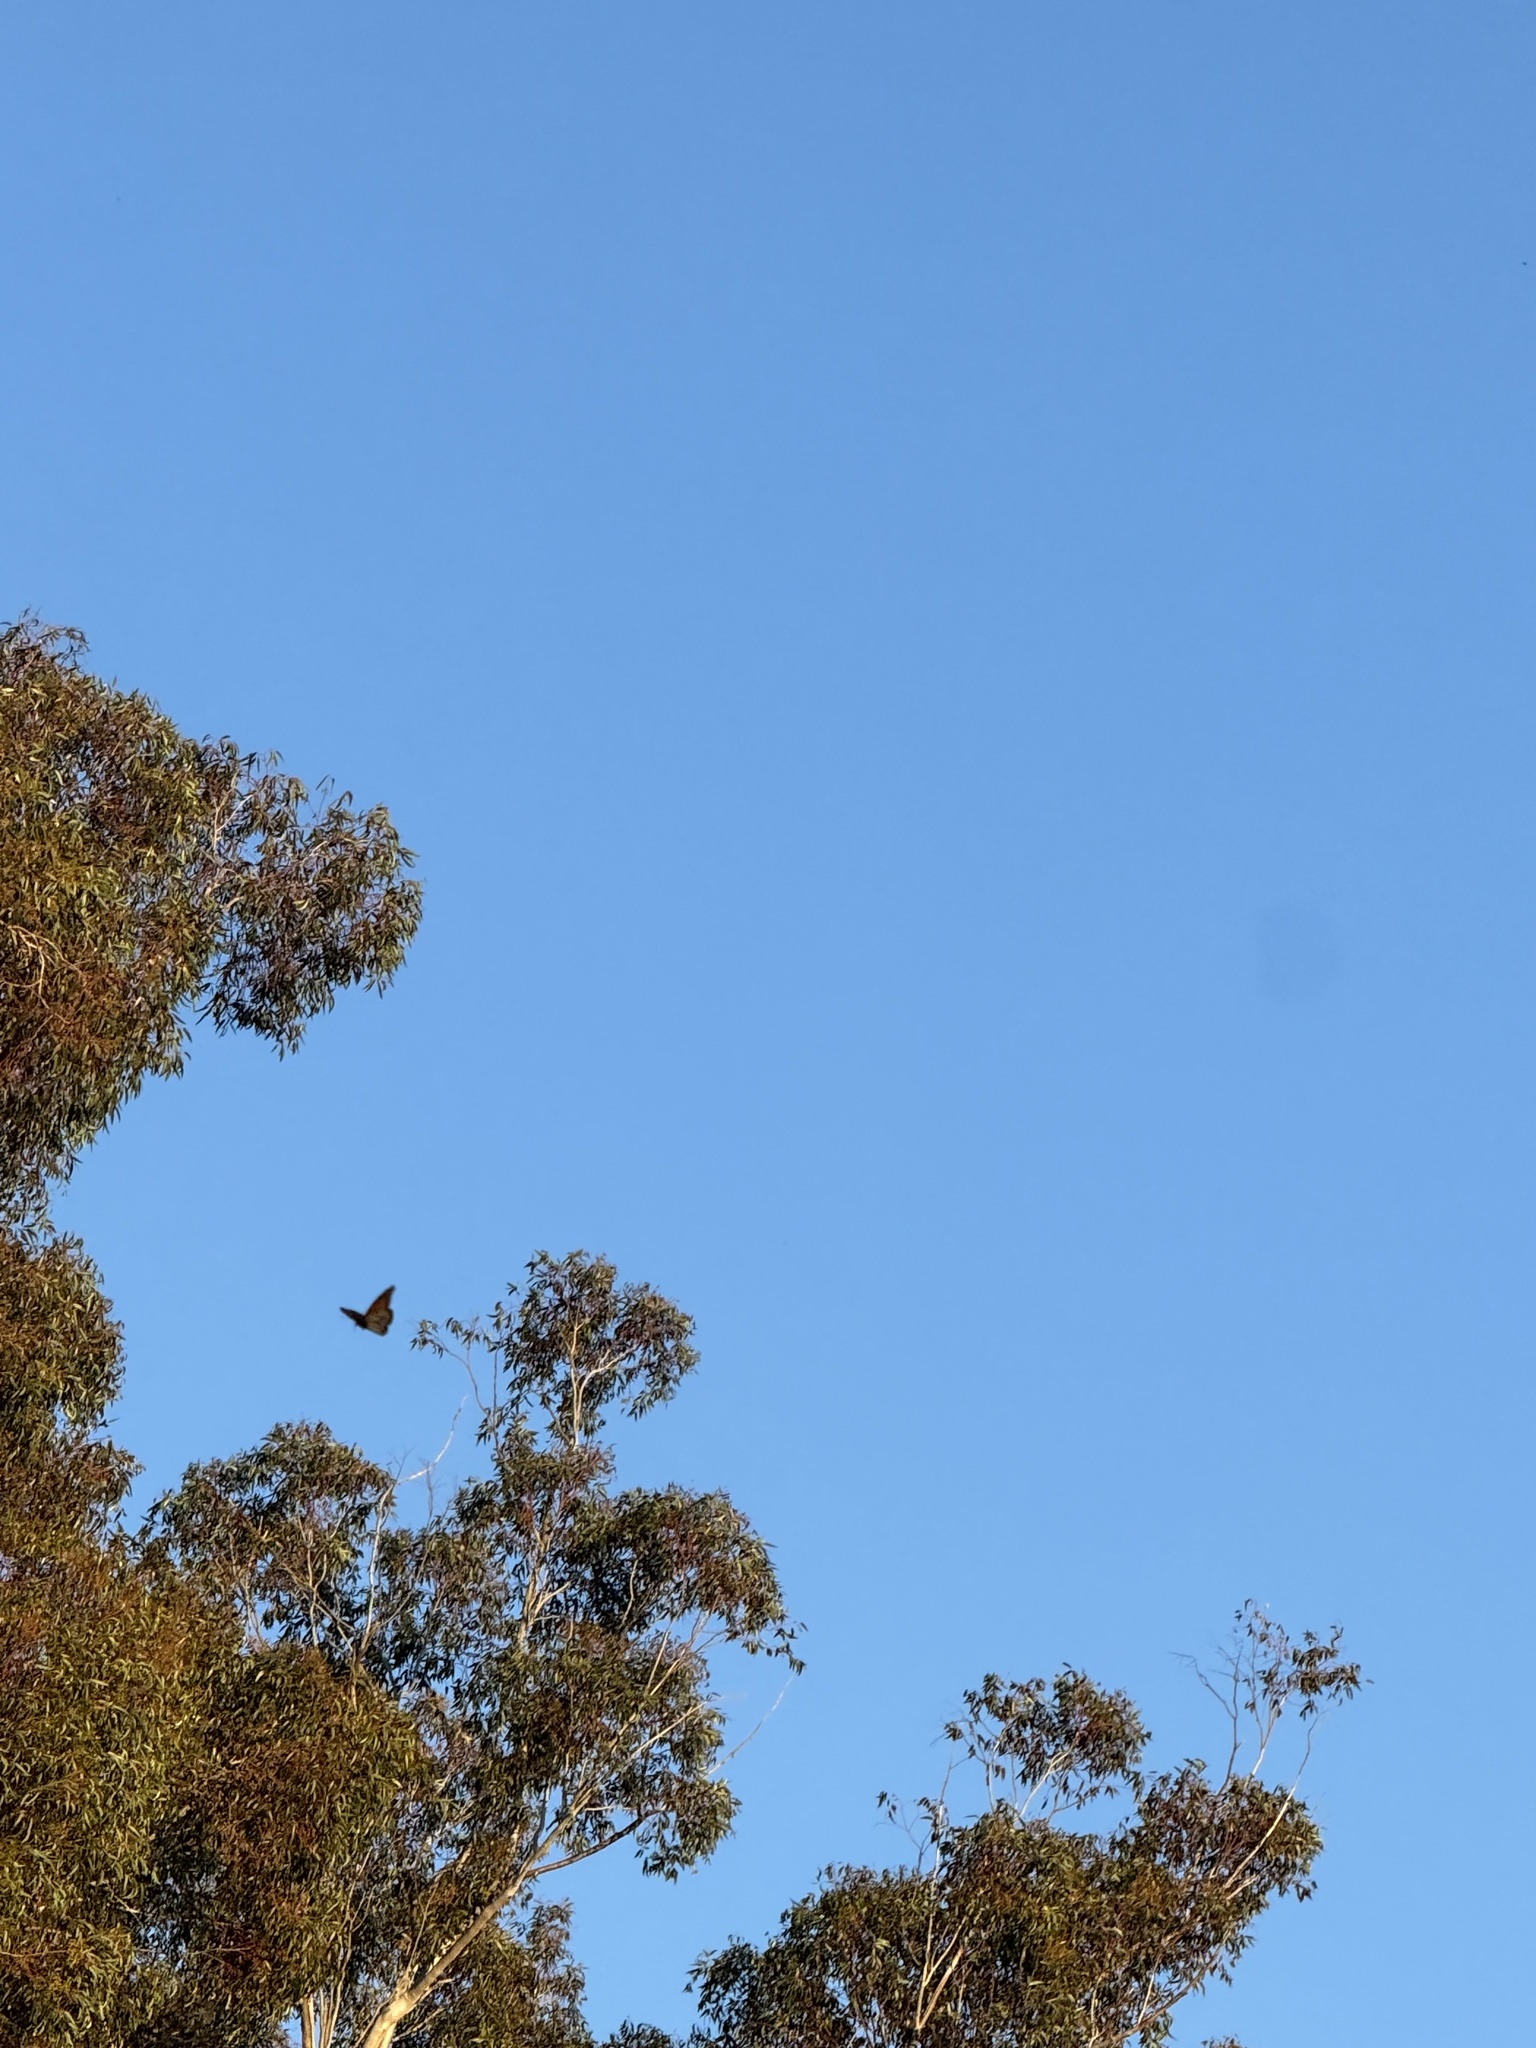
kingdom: Animalia
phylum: Arthropoda
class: Insecta
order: Lepidoptera
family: Nymphalidae
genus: Danaus
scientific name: Danaus plexippus
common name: Monarch
